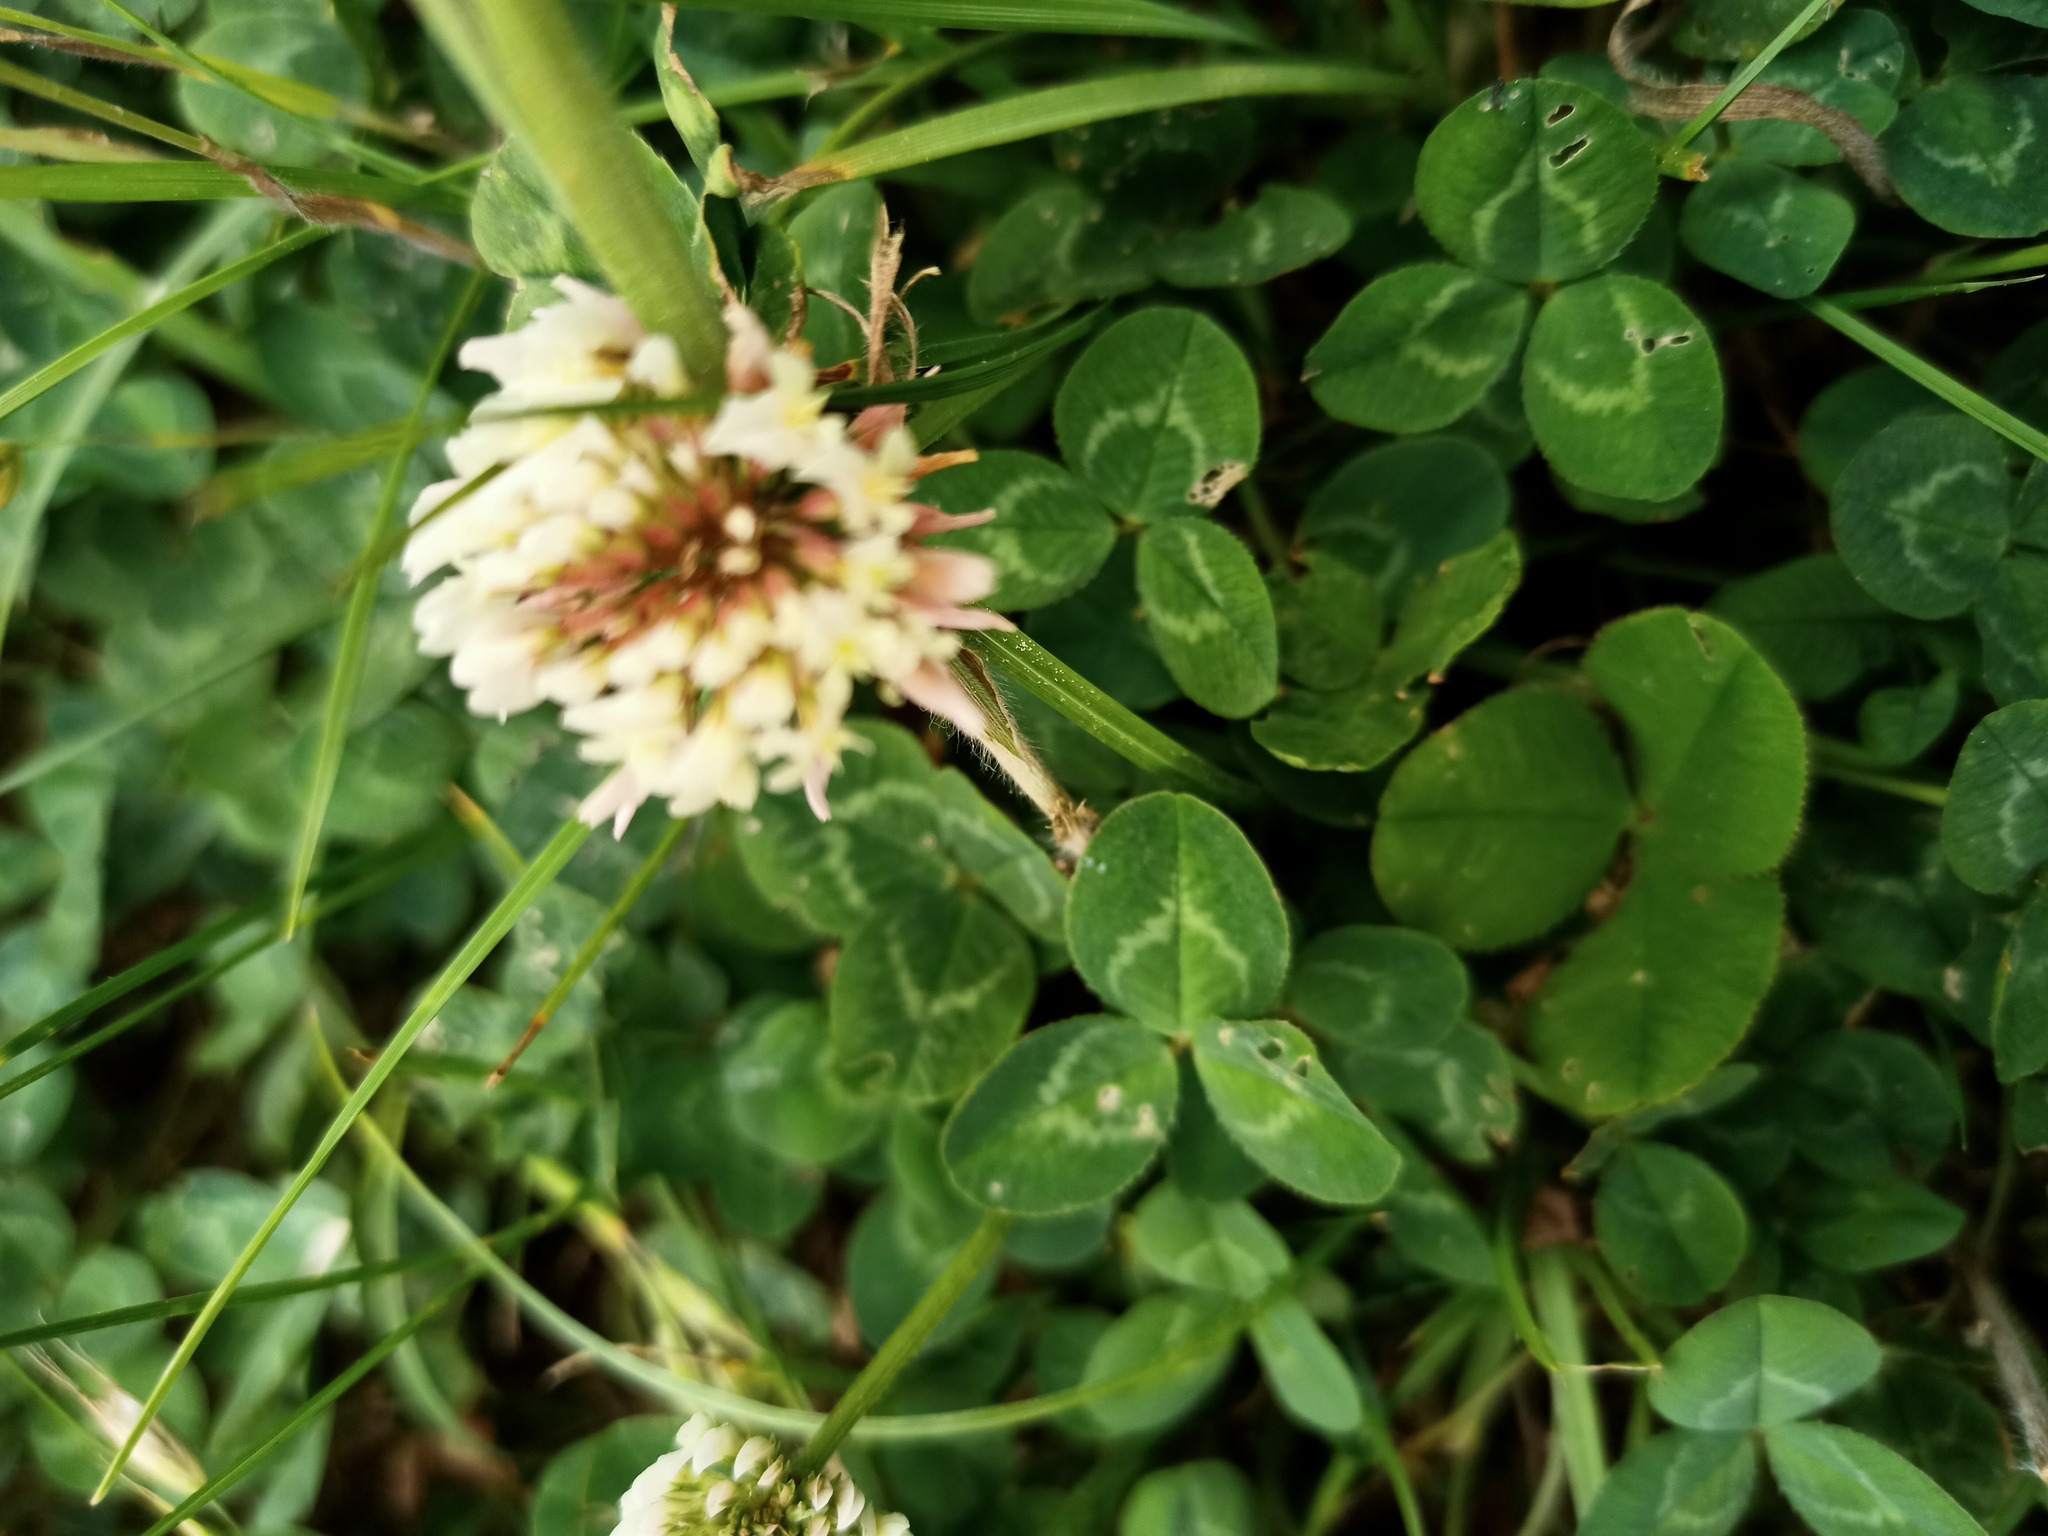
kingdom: Plantae
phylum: Tracheophyta
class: Magnoliopsida
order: Fabales
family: Fabaceae
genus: Trifolium
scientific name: Trifolium repens
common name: White clover
